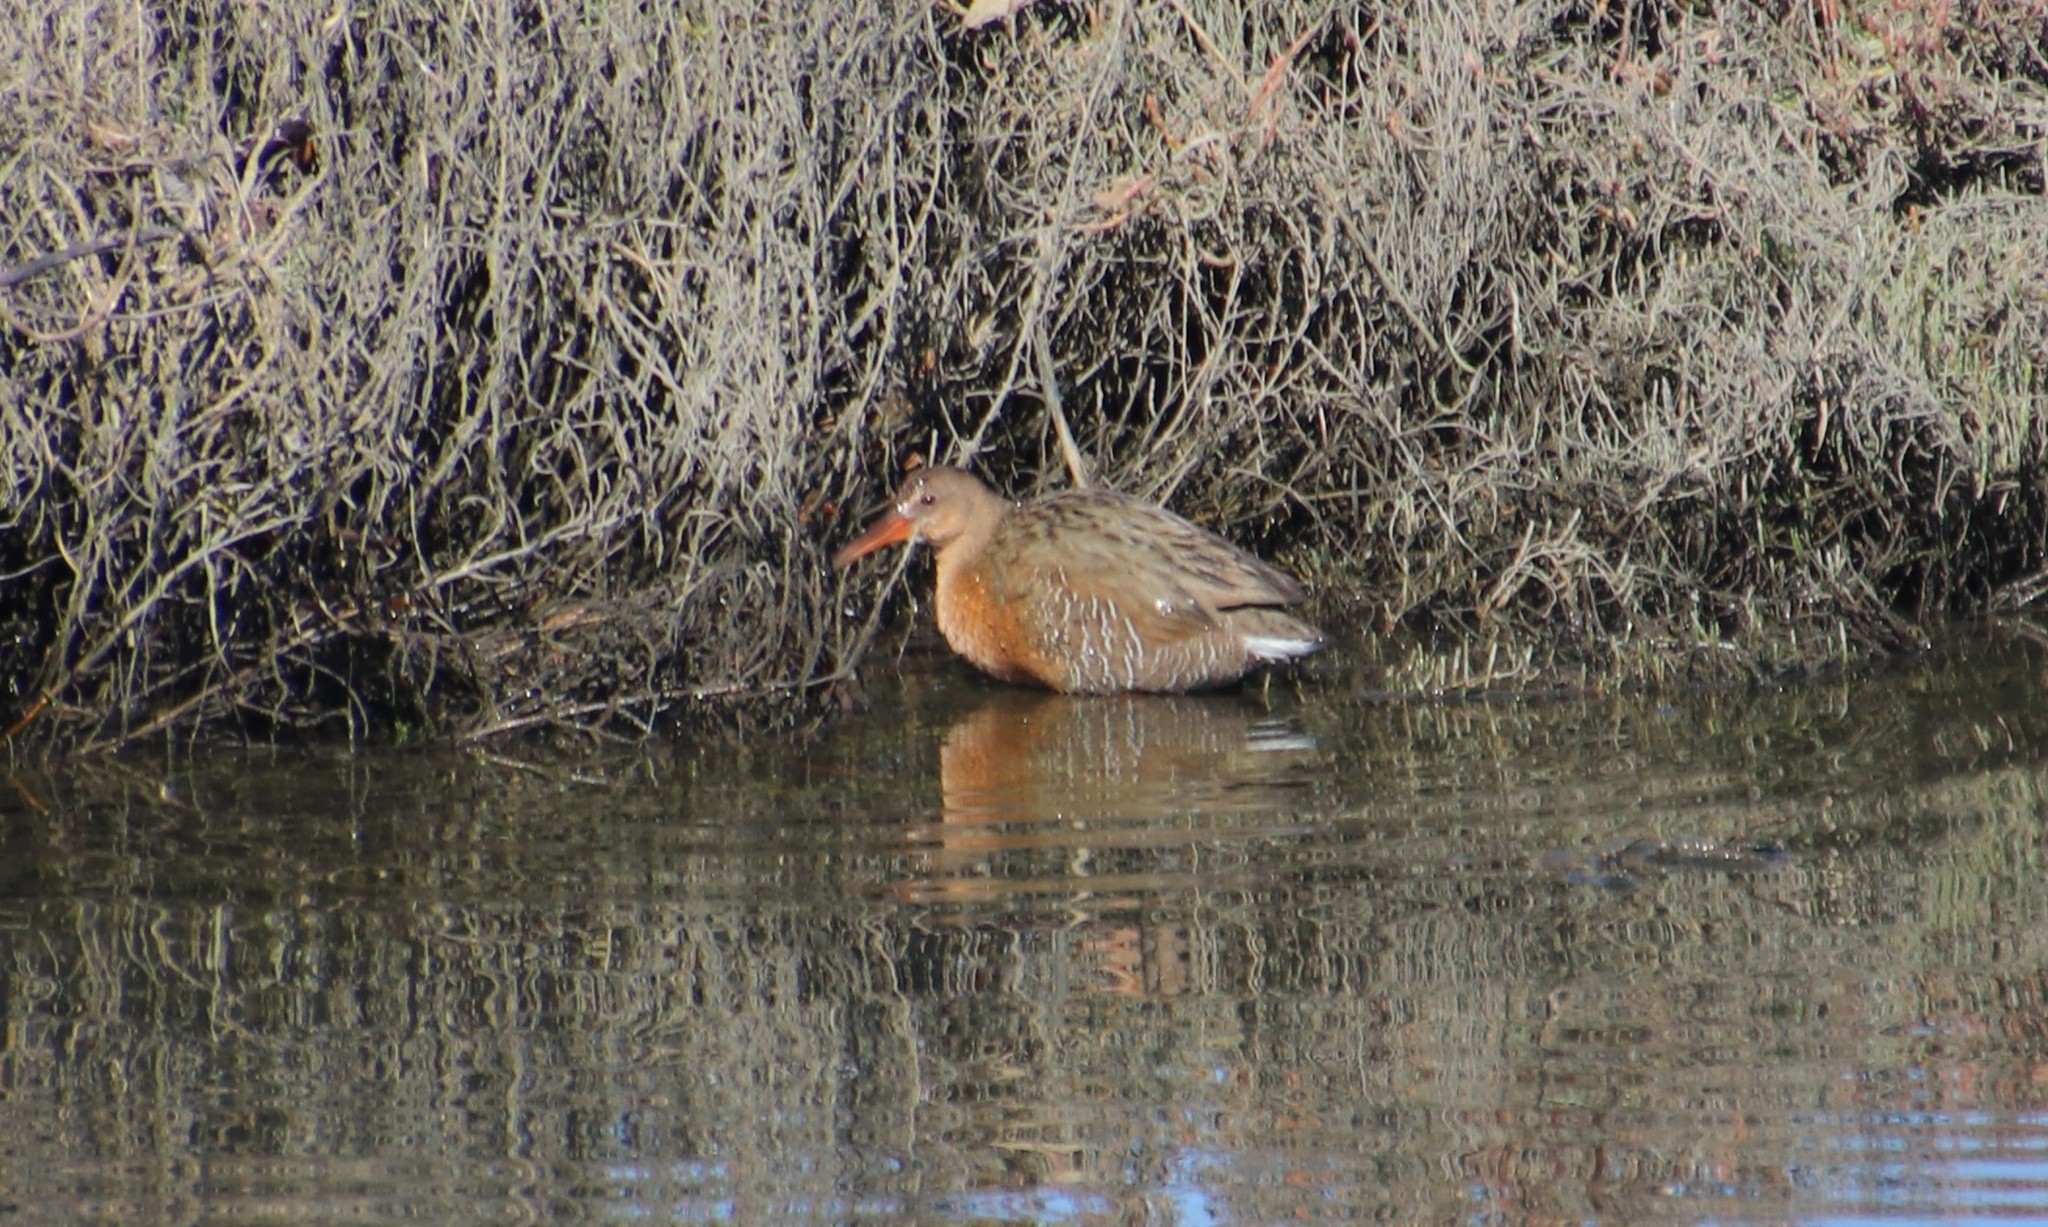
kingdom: Animalia
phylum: Chordata
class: Aves
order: Gruiformes
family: Rallidae
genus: Rallus
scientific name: Rallus obsoletus
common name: Ridgway's rail
